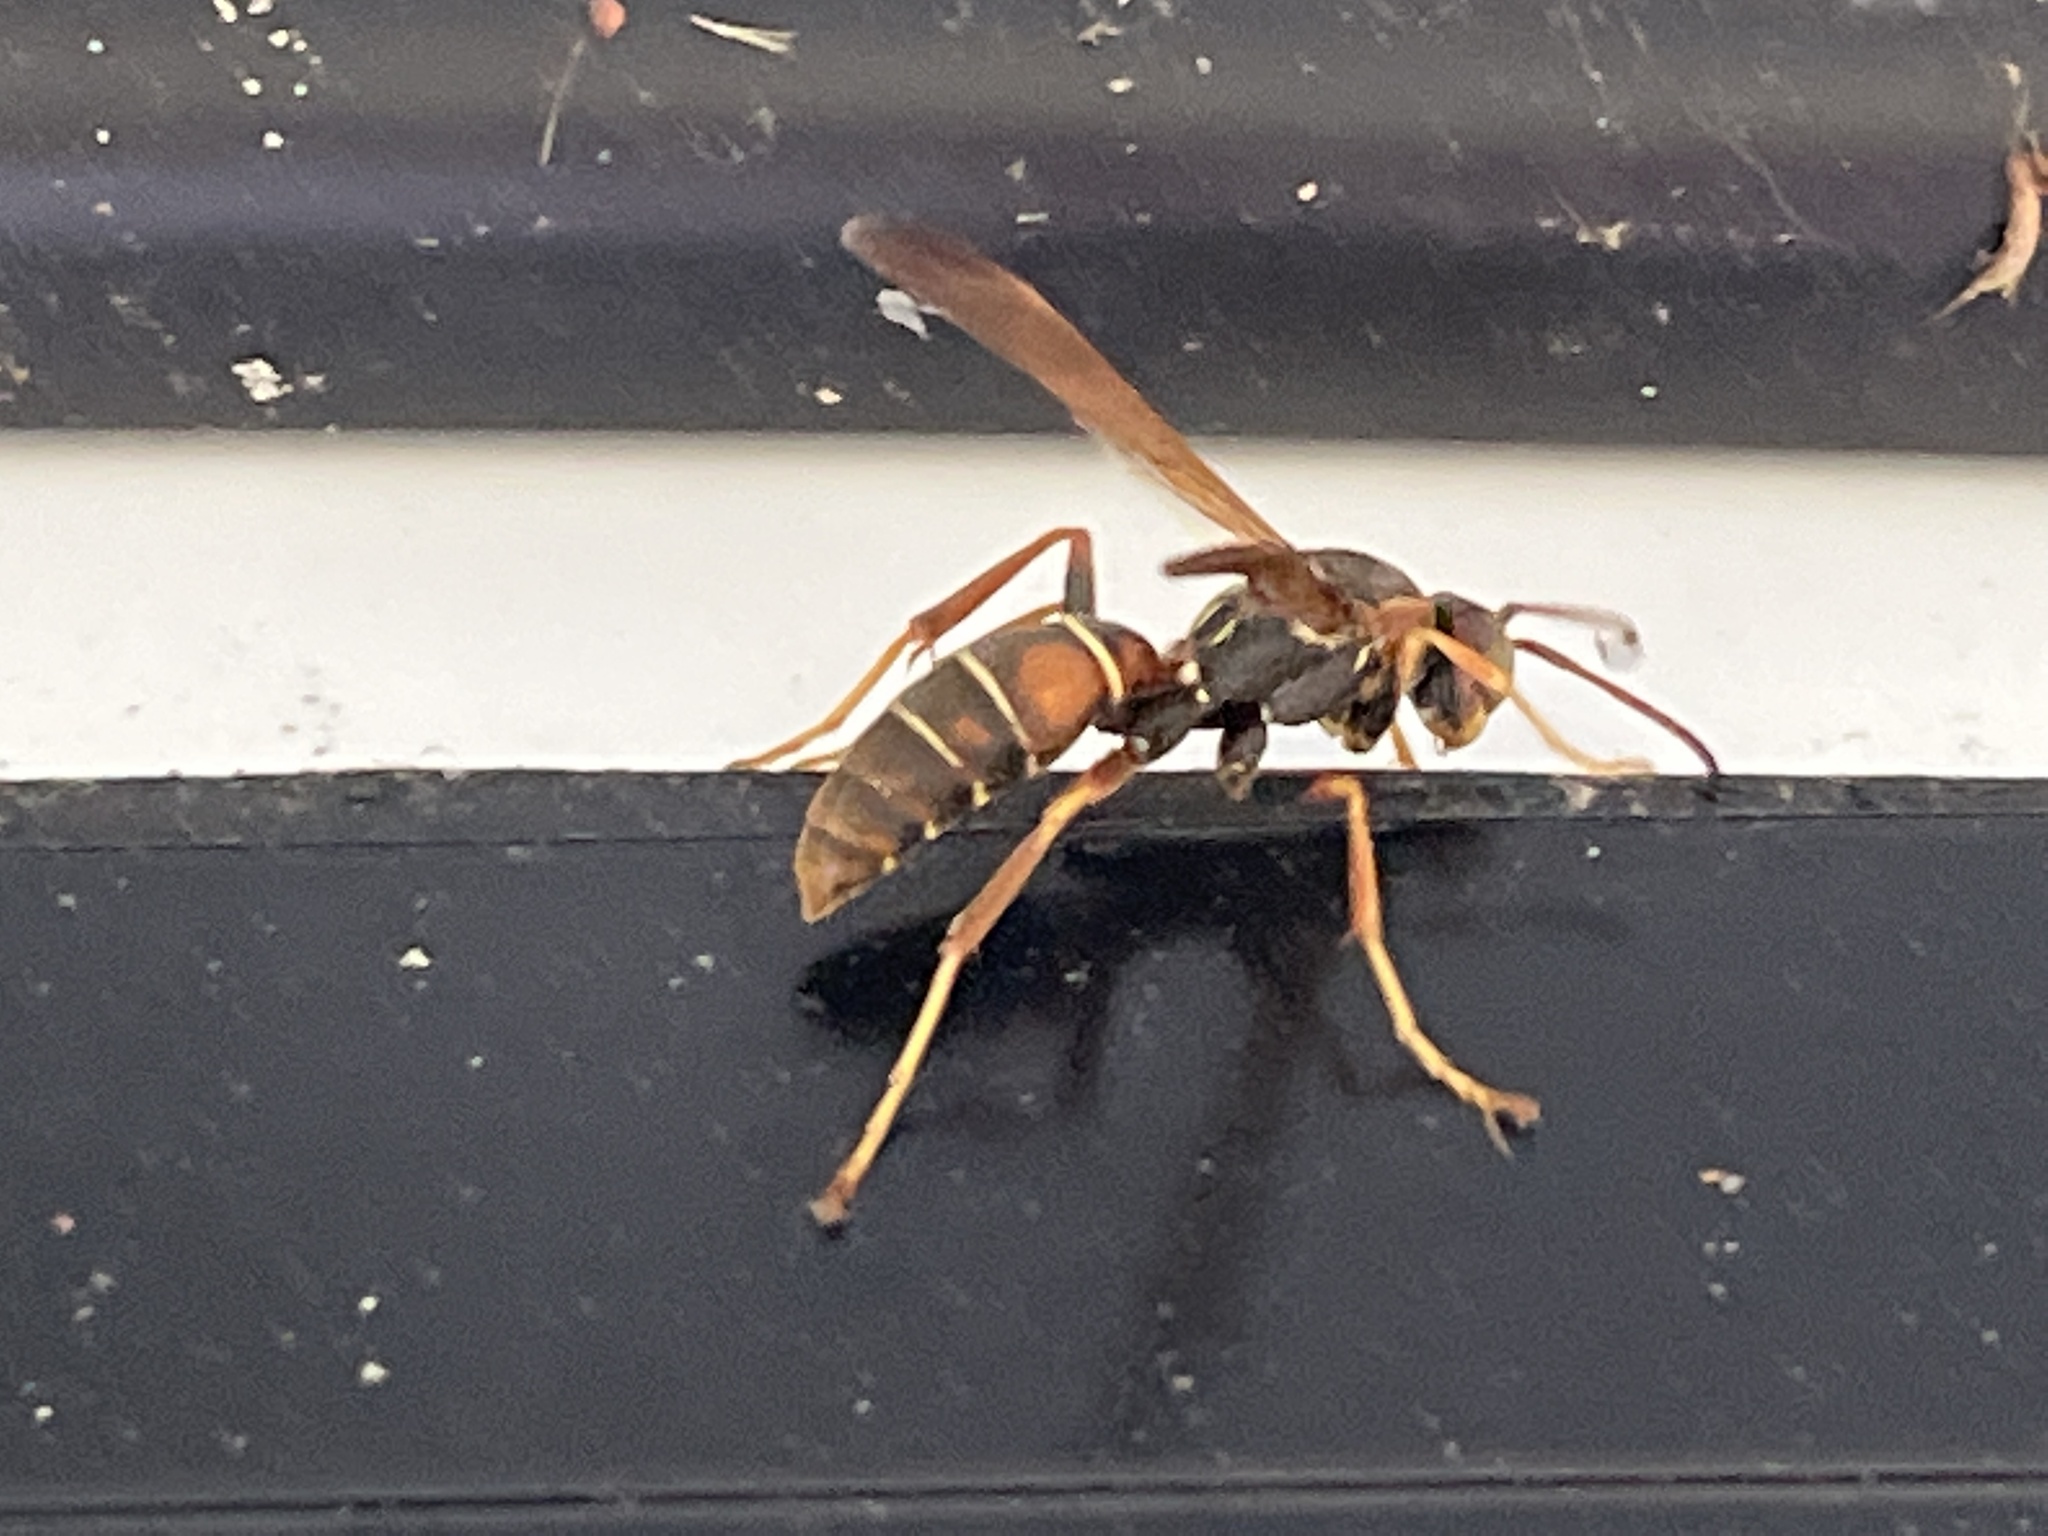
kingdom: Animalia
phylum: Arthropoda
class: Insecta
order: Hymenoptera
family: Eumenidae
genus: Polistes
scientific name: Polistes fuscatus
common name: Dark paper wasp
